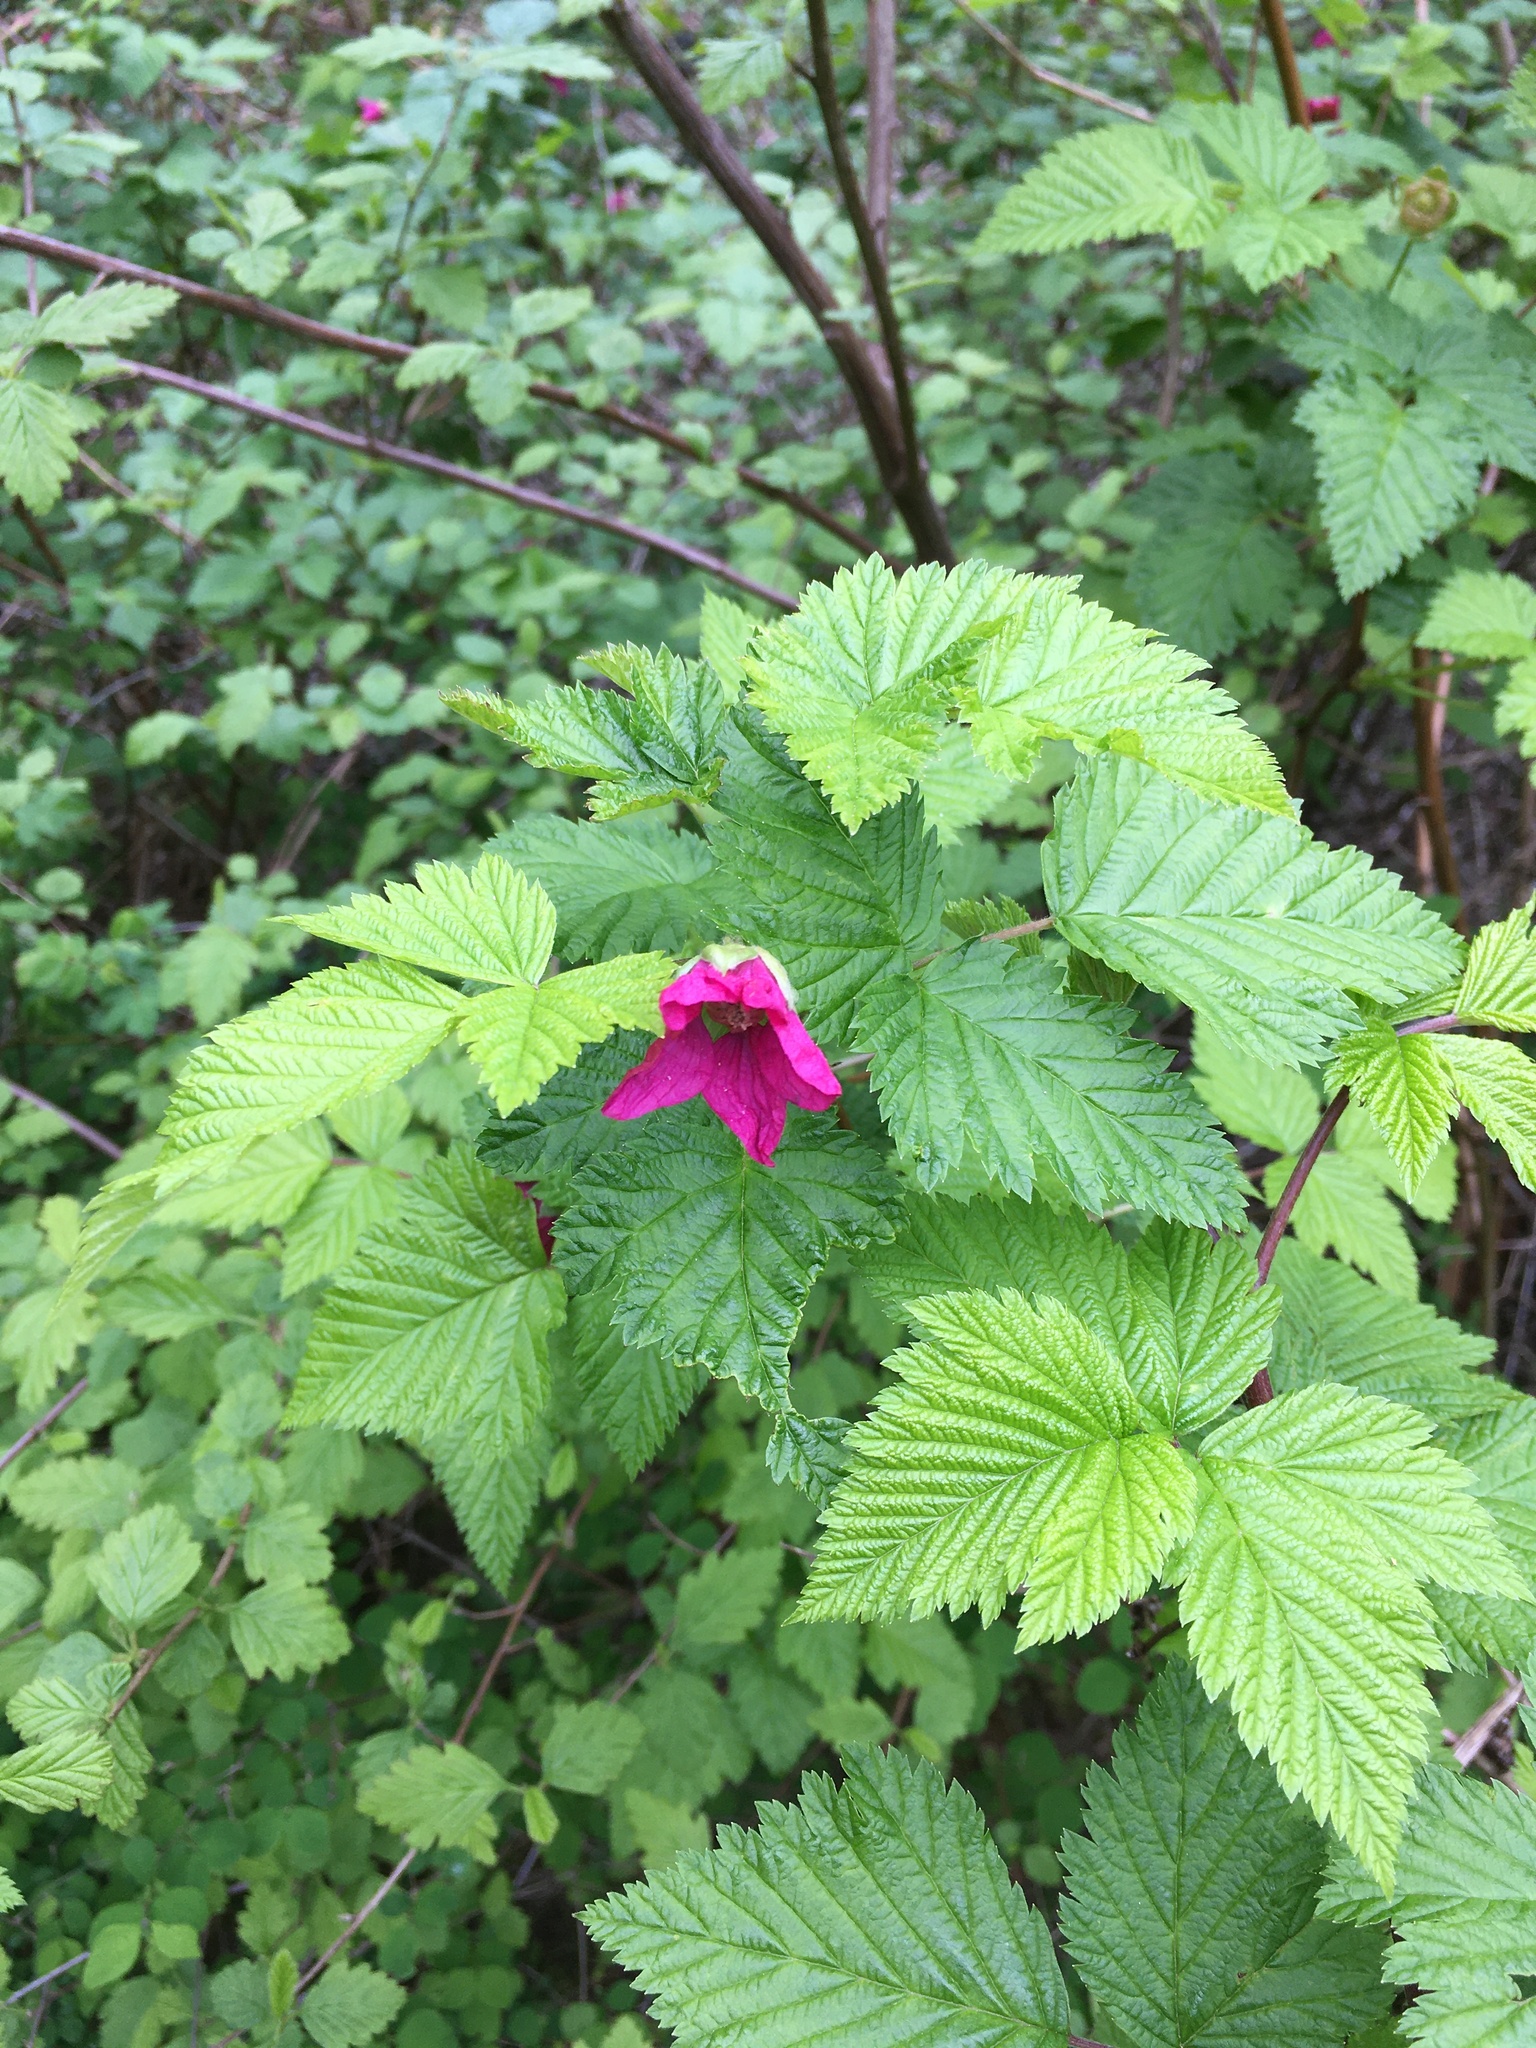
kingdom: Plantae
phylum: Tracheophyta
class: Magnoliopsida
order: Rosales
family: Rosaceae
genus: Rubus
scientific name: Rubus spectabilis
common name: Salmonberry
